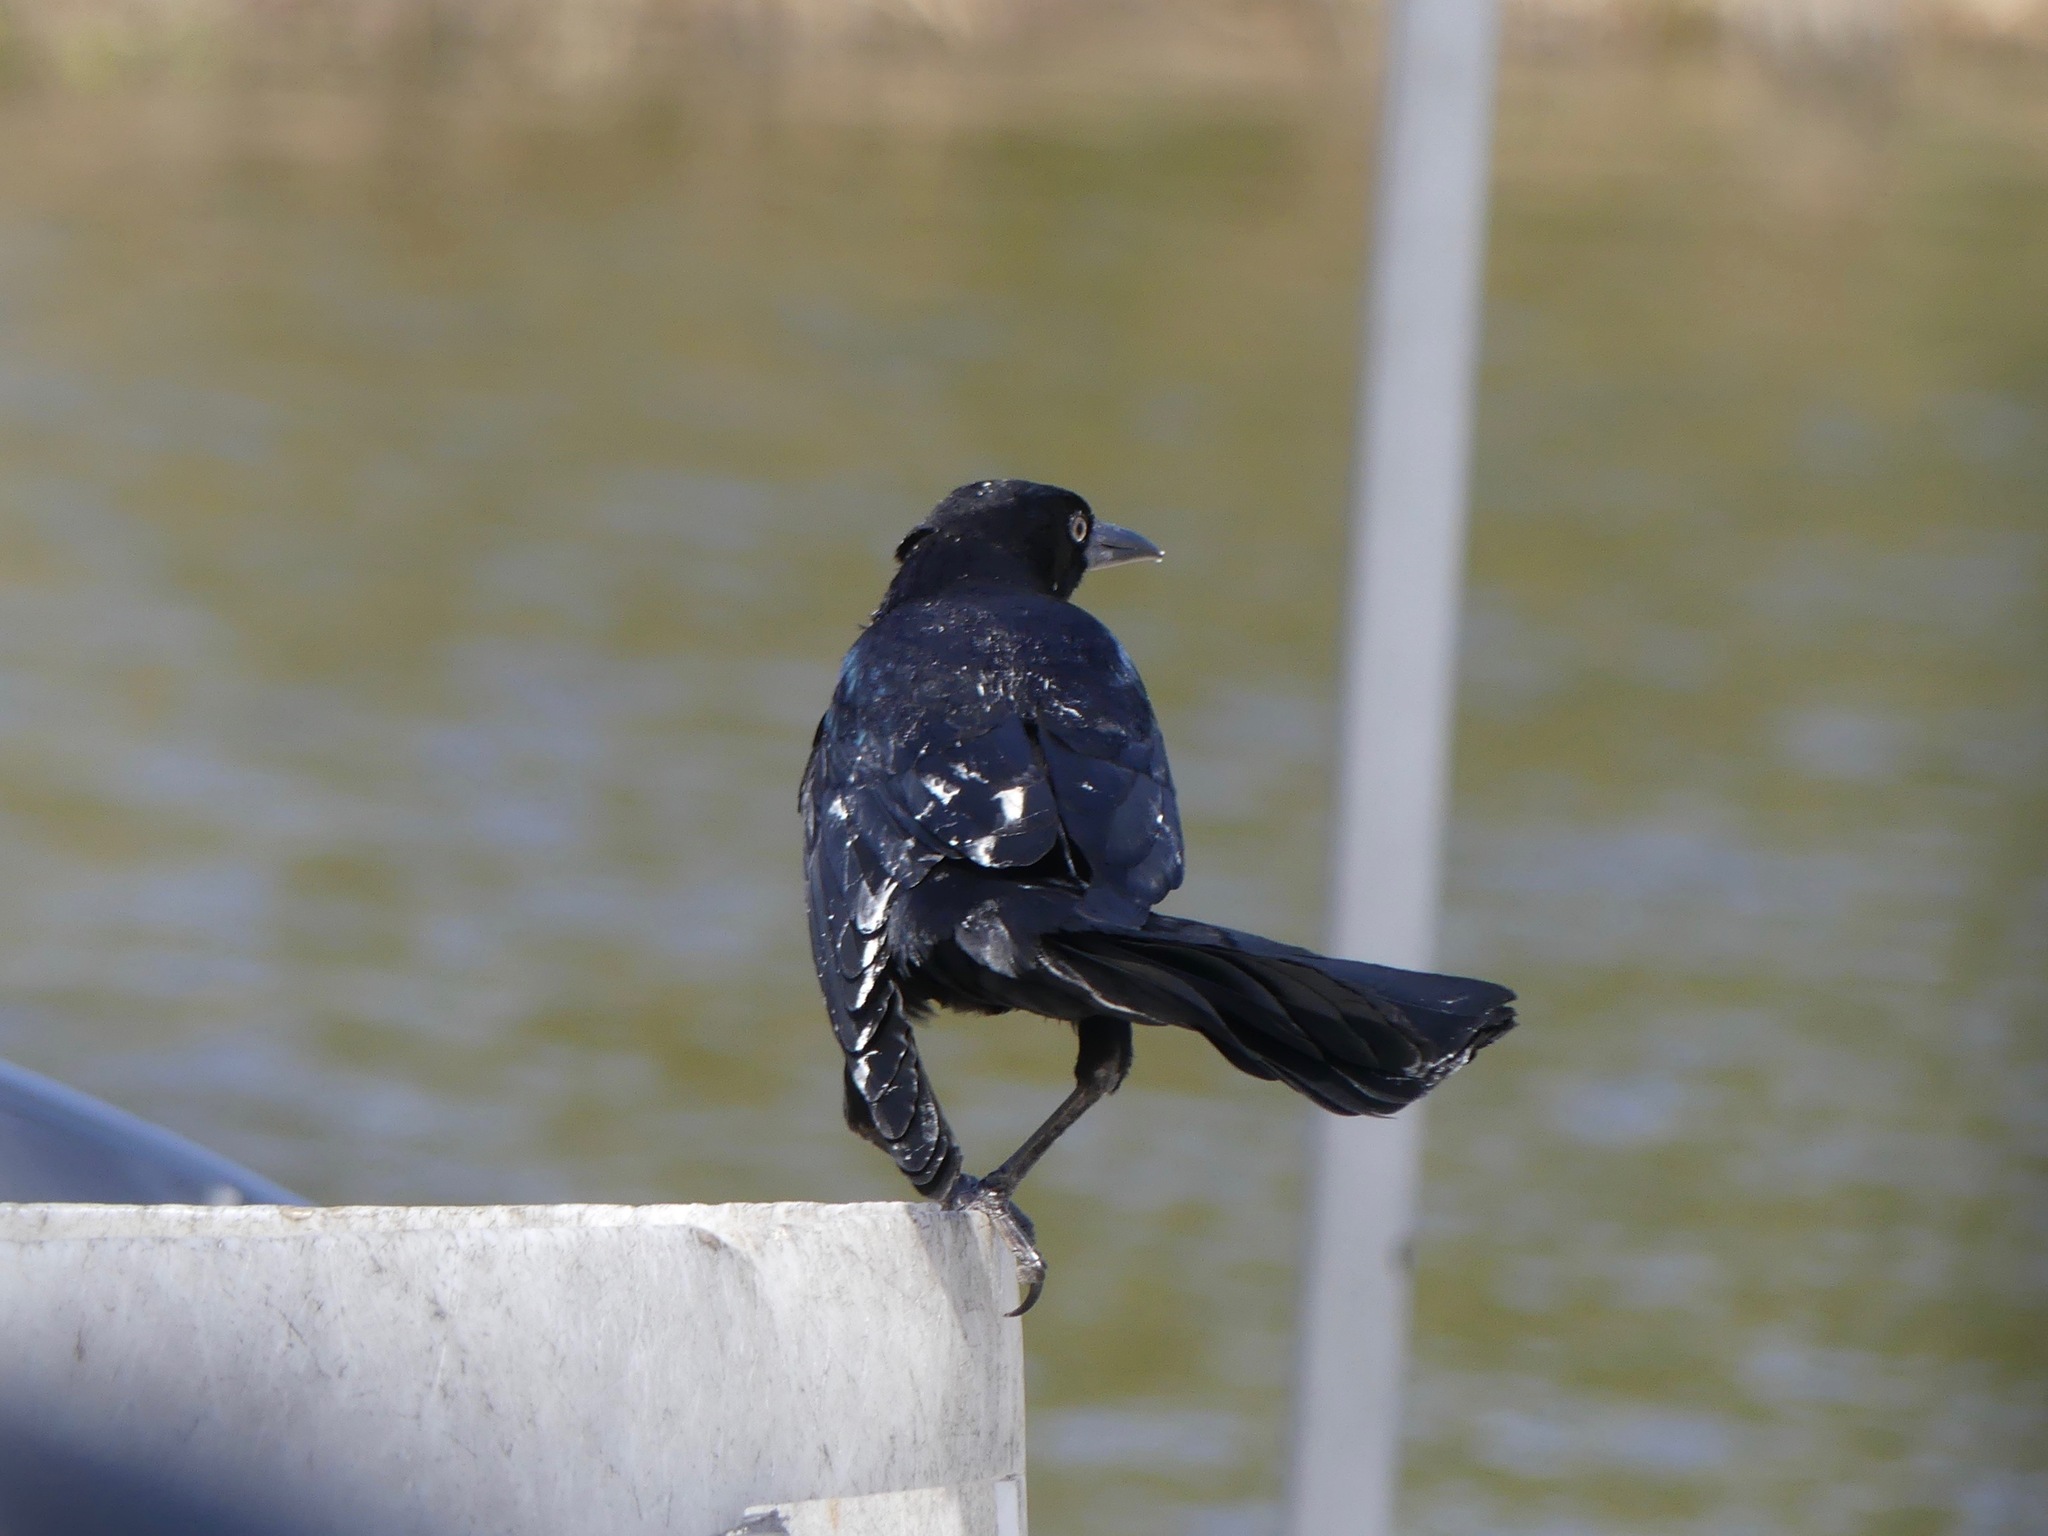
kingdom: Animalia
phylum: Chordata
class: Aves
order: Passeriformes
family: Icteridae
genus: Quiscalus
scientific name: Quiscalus major
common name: Boat-tailed grackle
